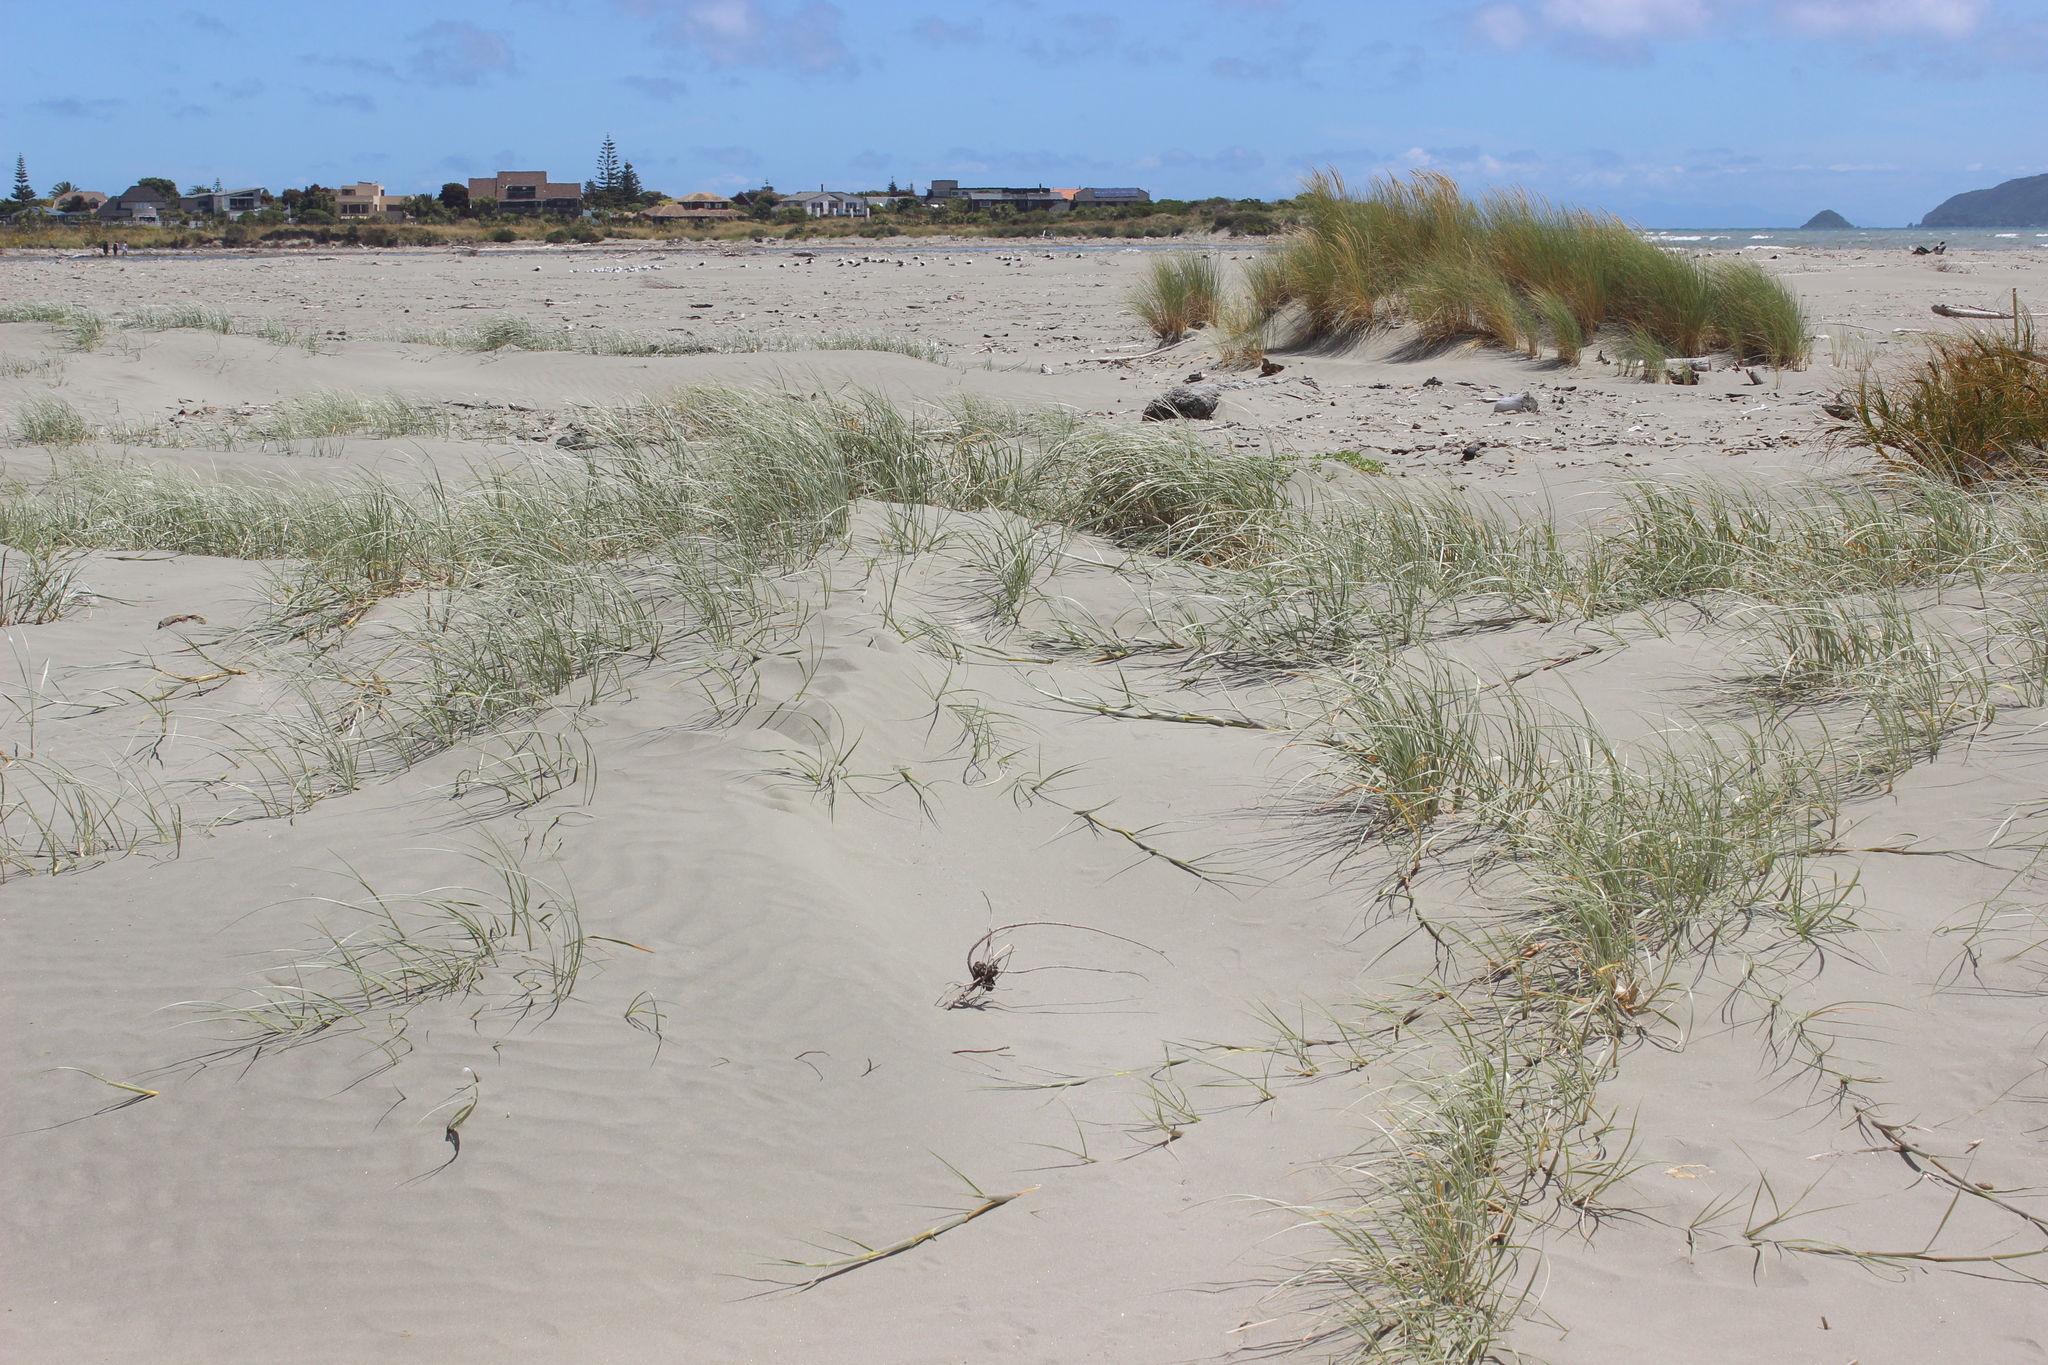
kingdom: Plantae
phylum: Tracheophyta
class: Liliopsida
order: Poales
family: Poaceae
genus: Spinifex
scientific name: Spinifex sericeus
